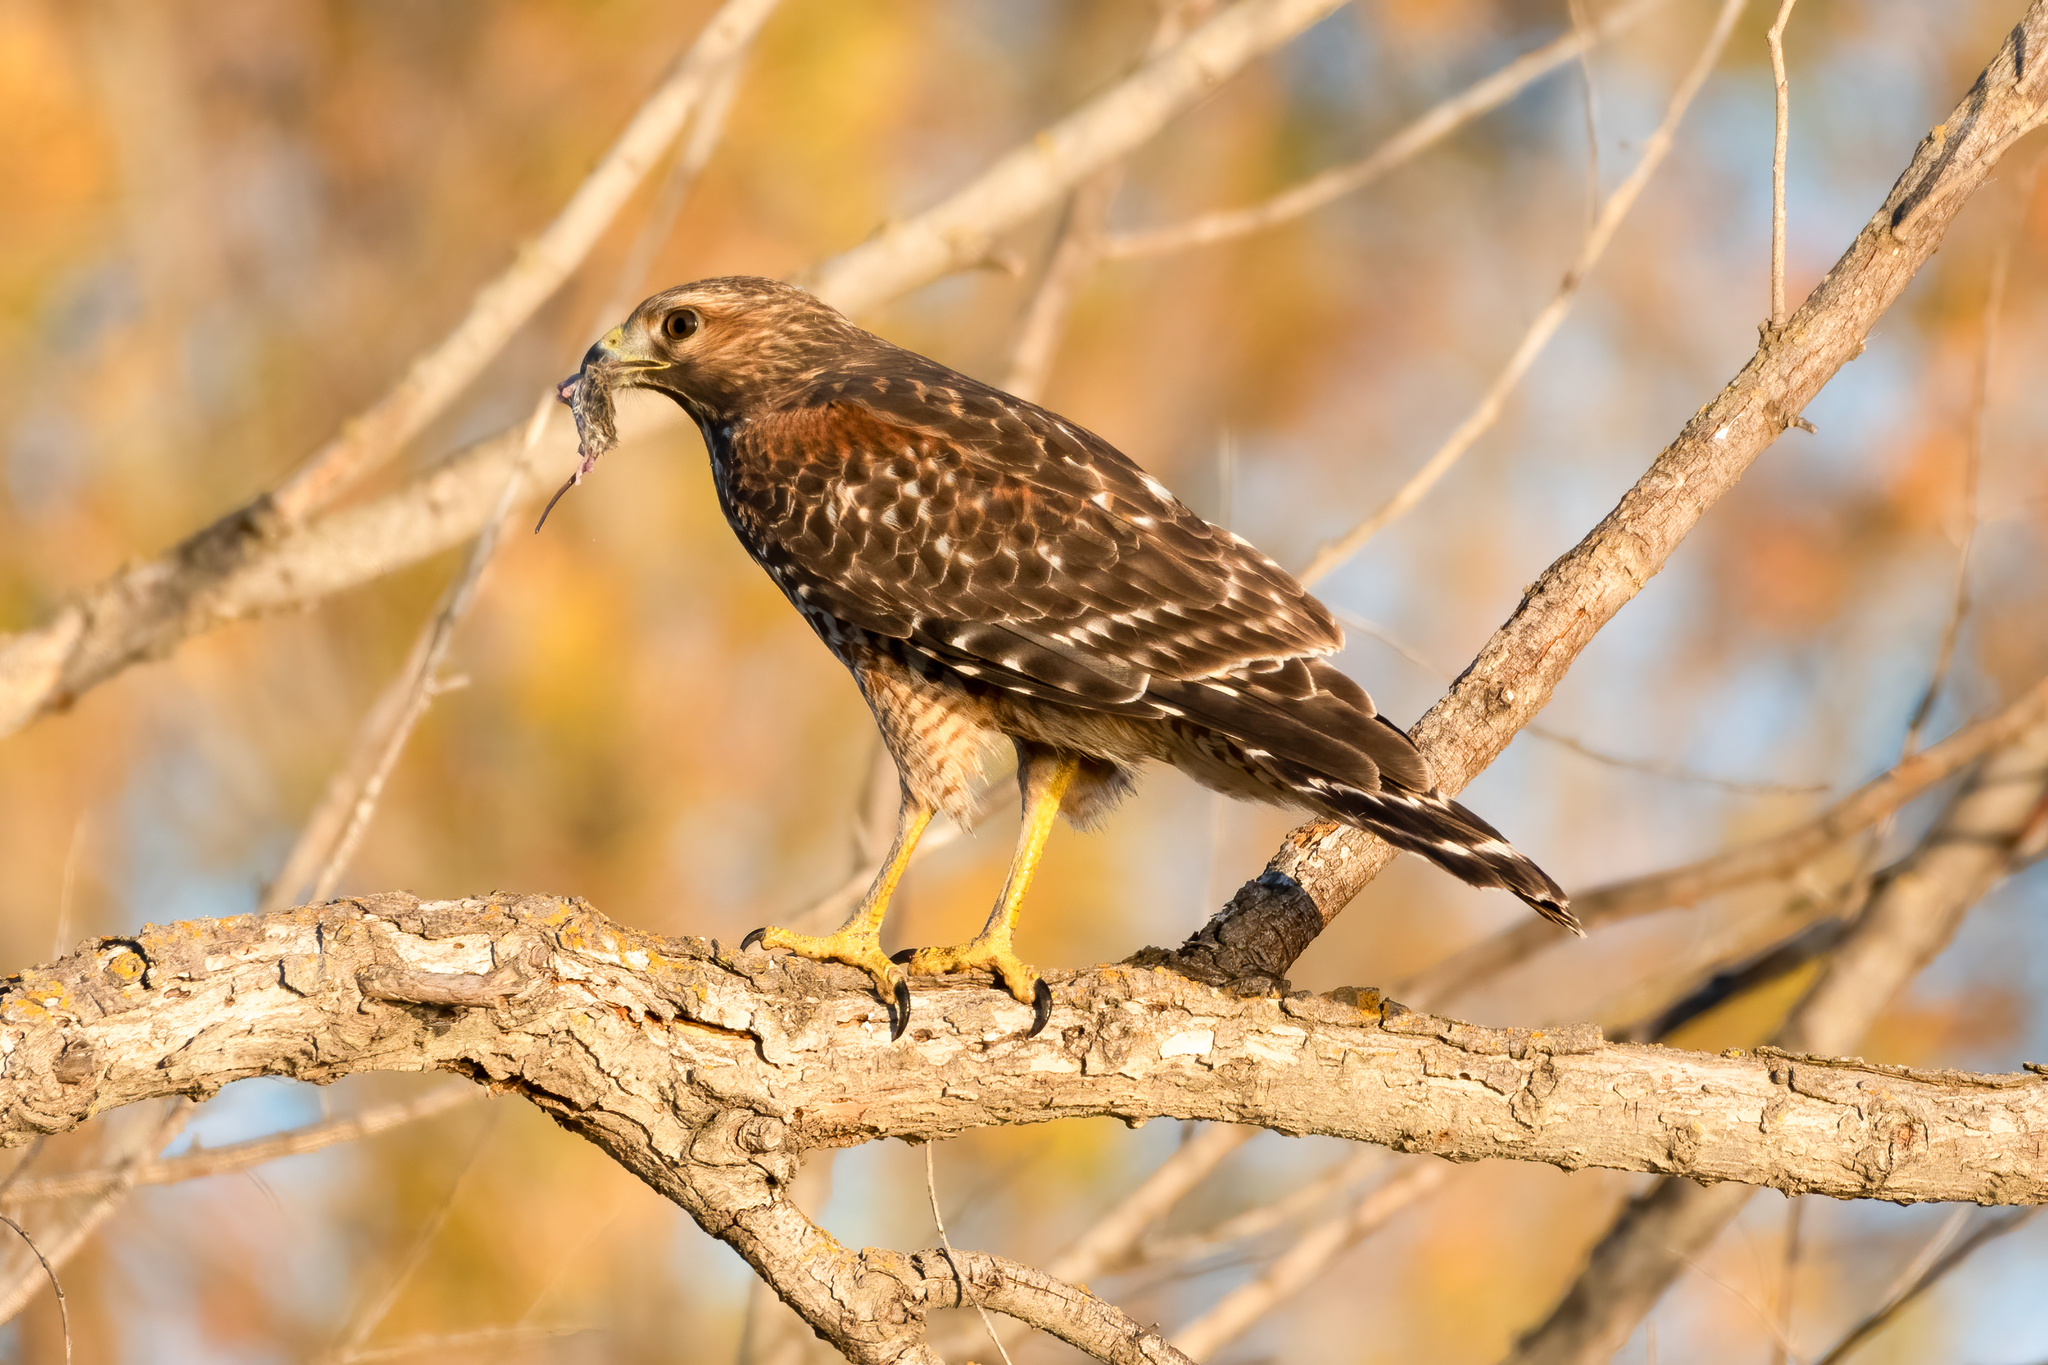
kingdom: Animalia
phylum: Chordata
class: Aves
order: Accipitriformes
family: Accipitridae
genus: Buteo
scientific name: Buteo lineatus
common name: Red-shouldered hawk
